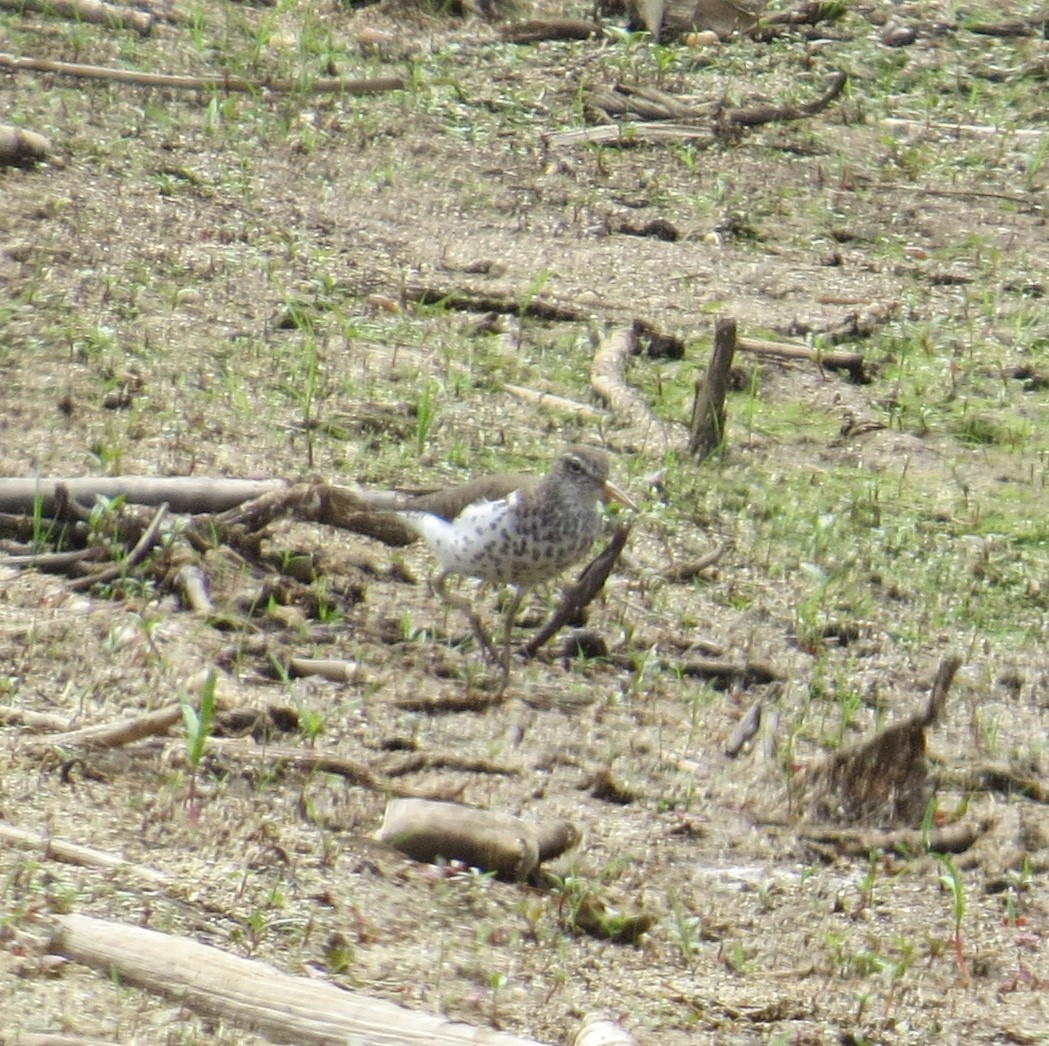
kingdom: Animalia
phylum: Chordata
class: Aves
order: Charadriiformes
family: Scolopacidae
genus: Actitis
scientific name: Actitis macularius
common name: Spotted sandpiper
